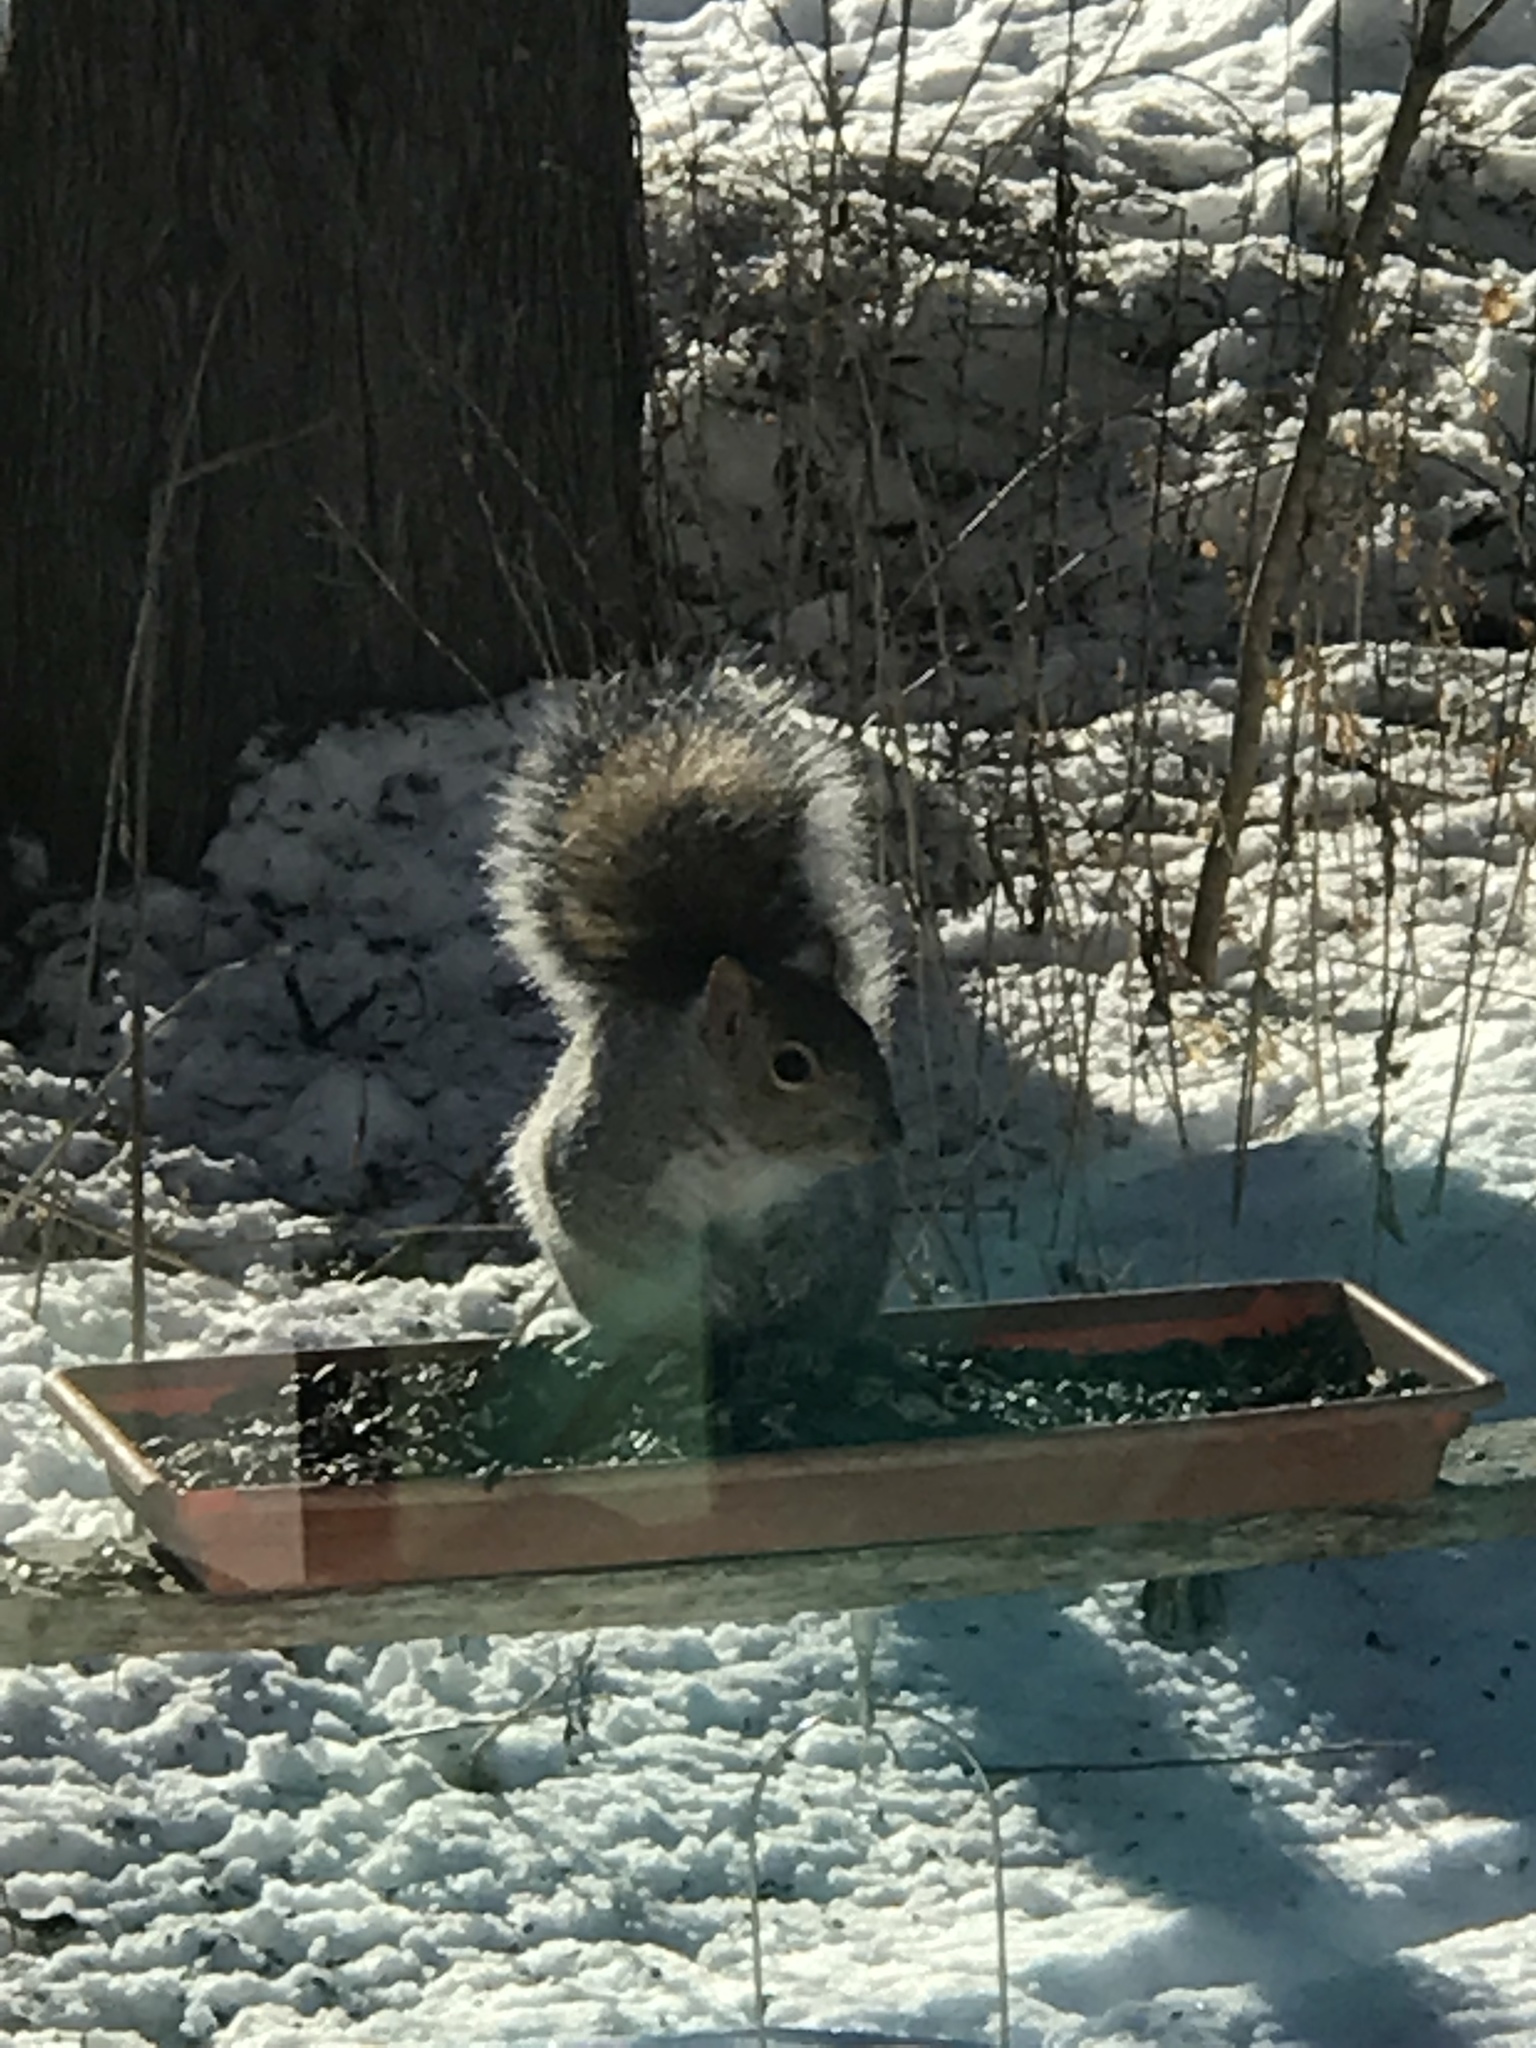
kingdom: Animalia
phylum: Chordata
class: Mammalia
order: Rodentia
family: Sciuridae
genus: Sciurus
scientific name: Sciurus carolinensis
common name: Eastern gray squirrel
